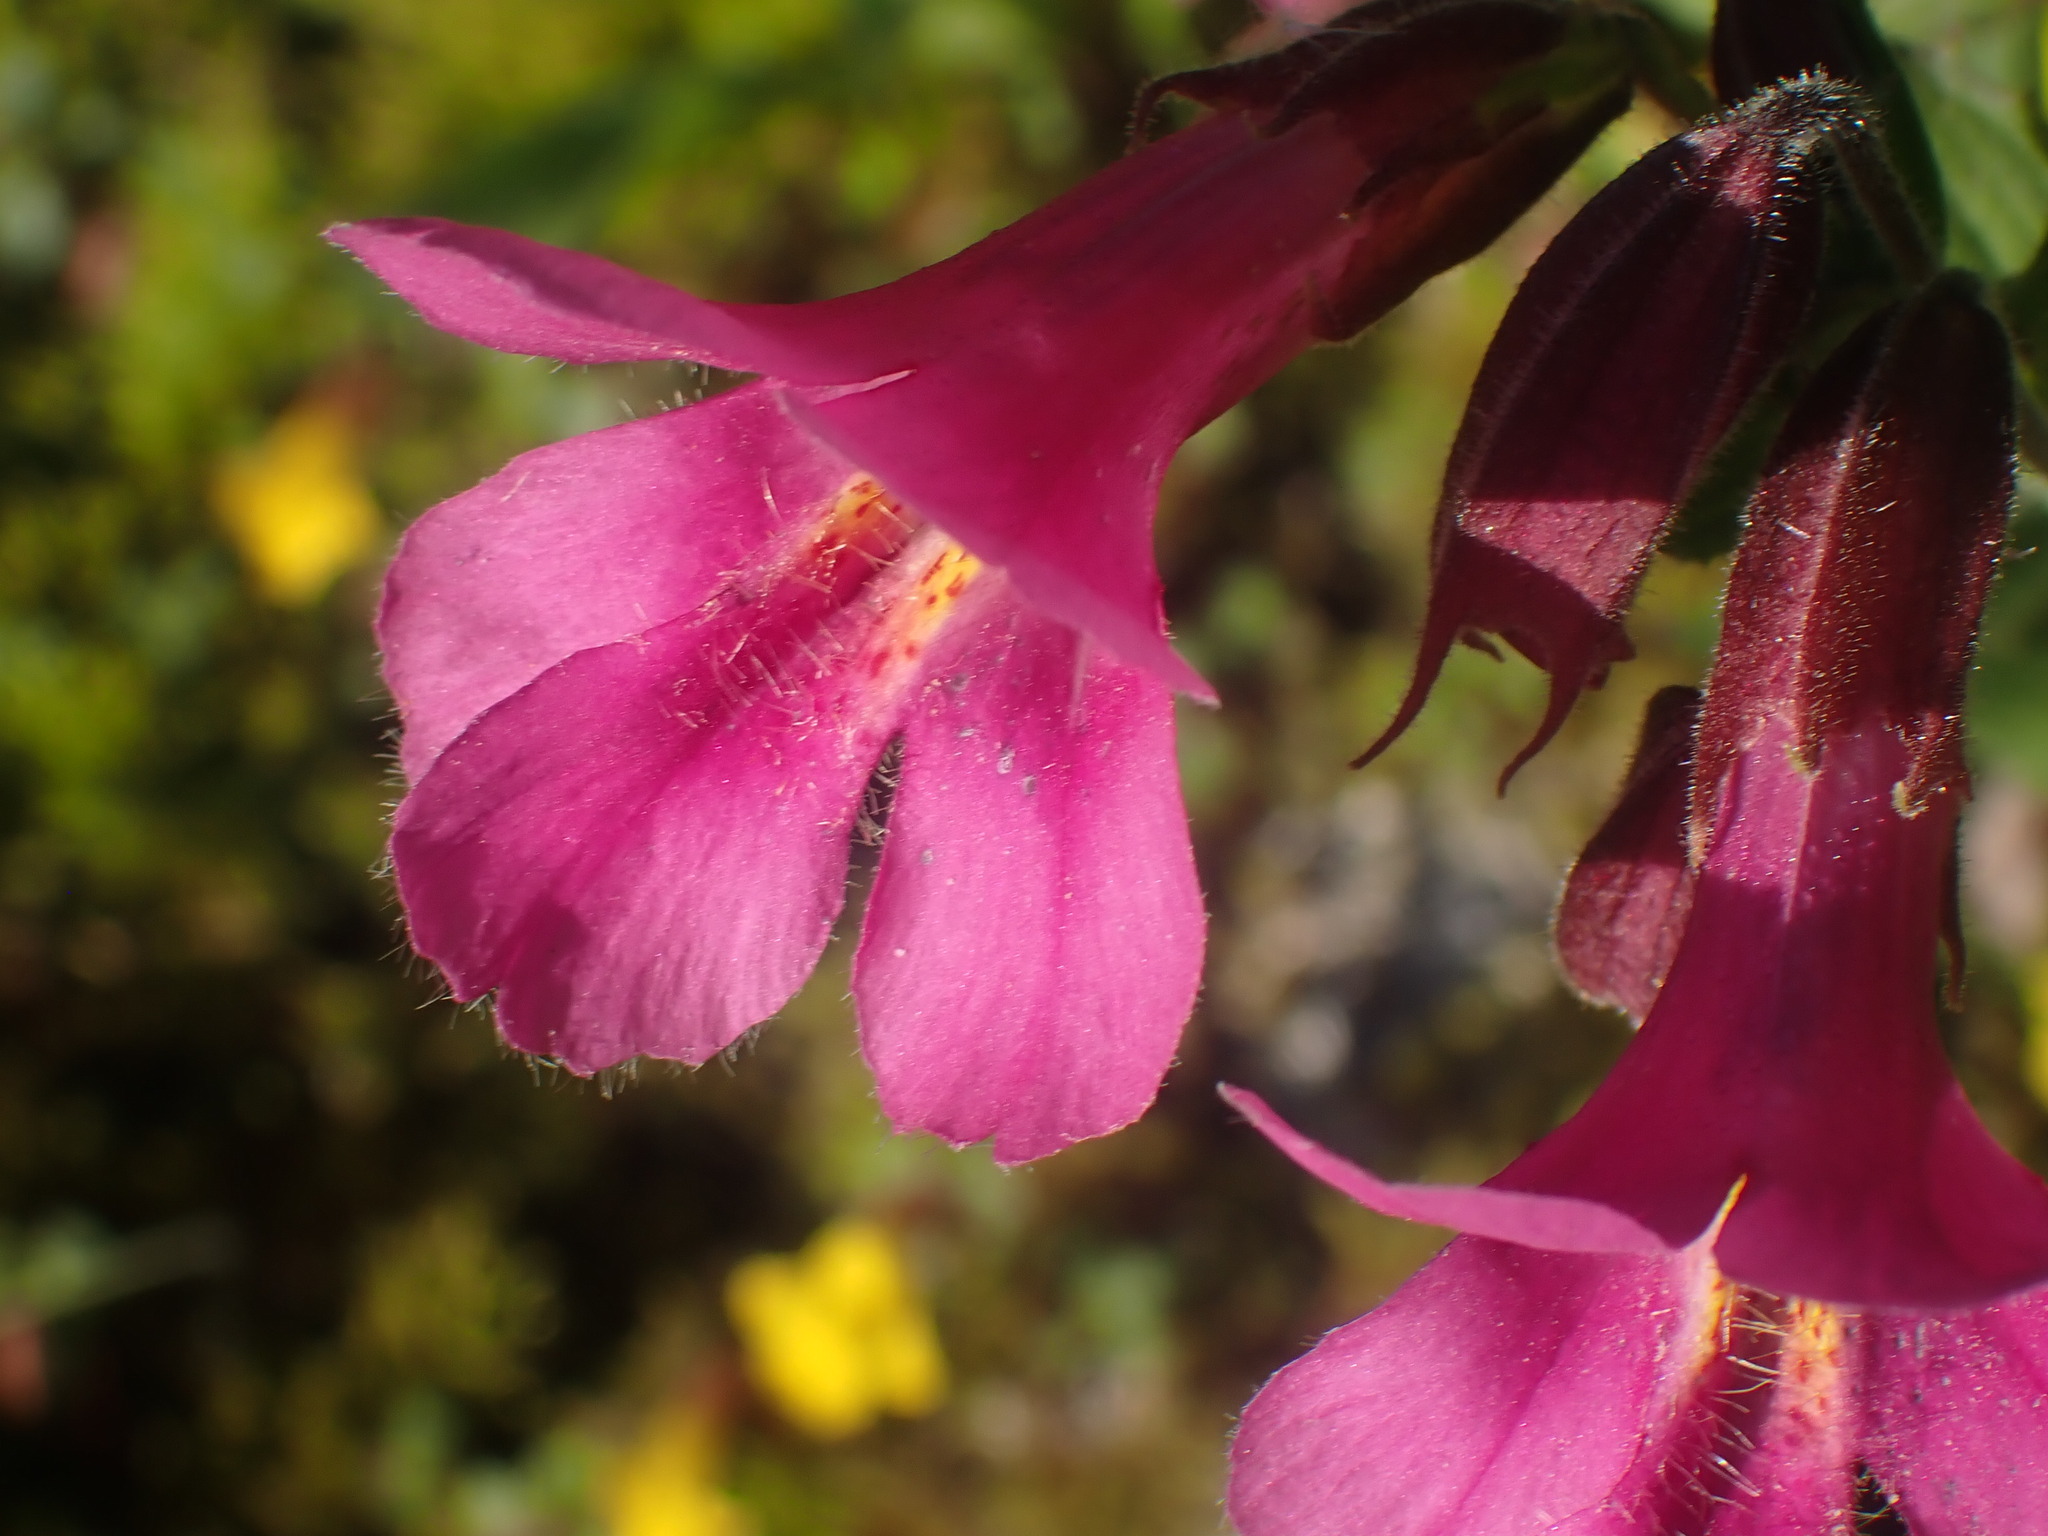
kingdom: Plantae
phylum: Tracheophyta
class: Magnoliopsida
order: Lamiales
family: Phrymaceae
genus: Erythranthe
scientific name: Erythranthe lewisii
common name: Lewis's monkey-flower
